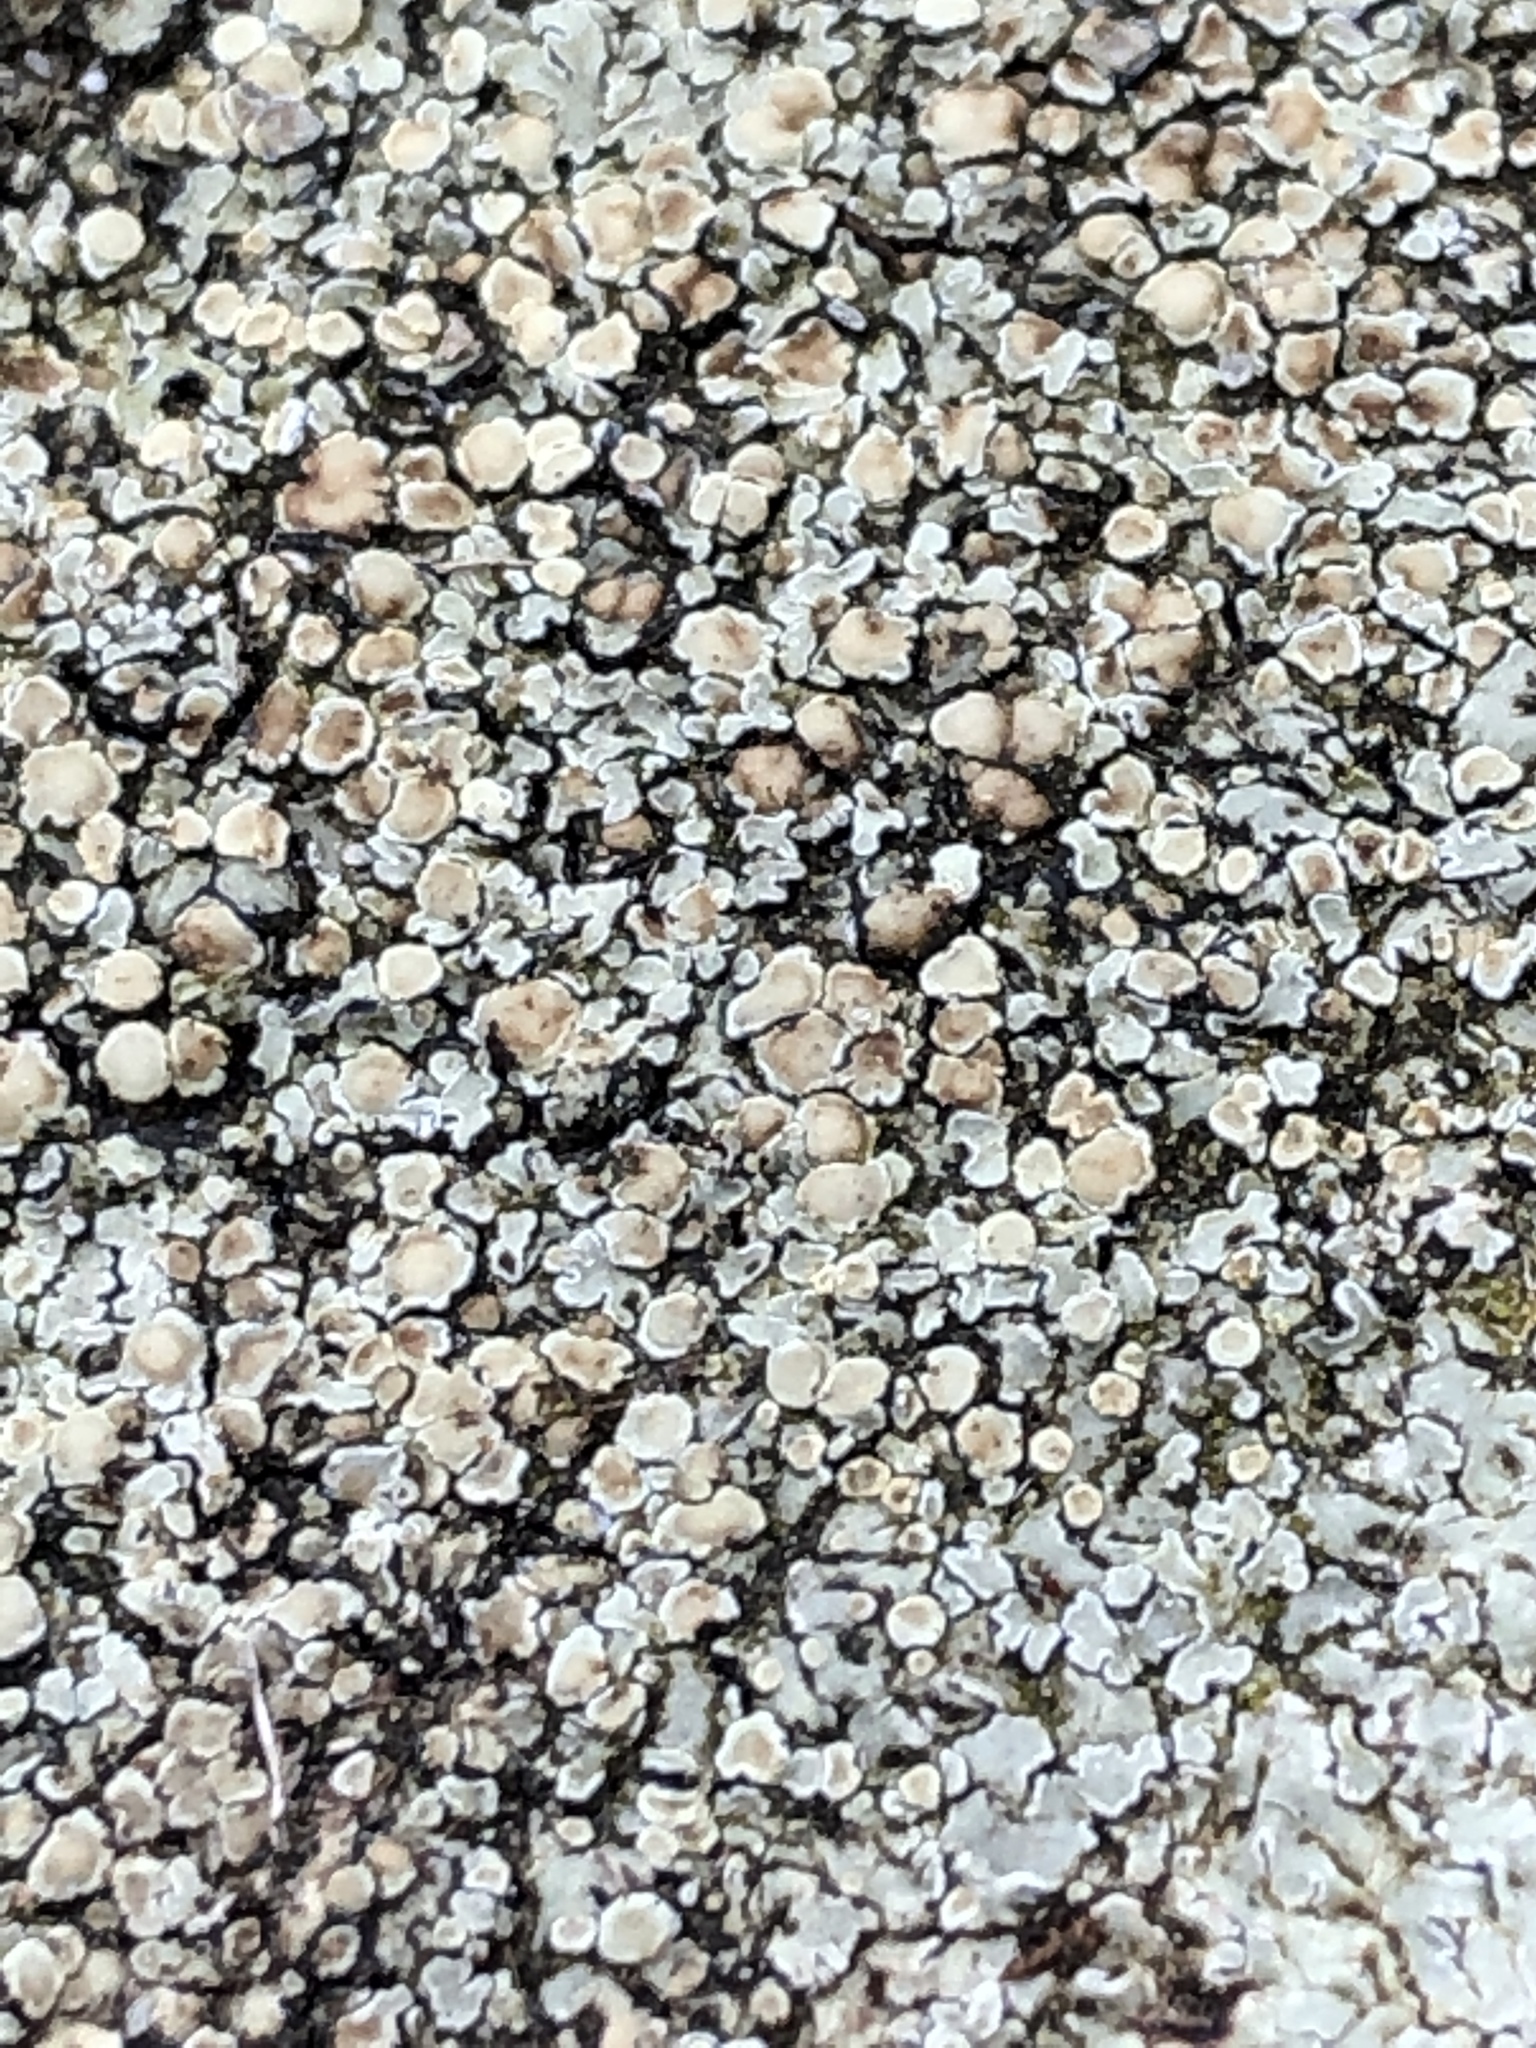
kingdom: Fungi
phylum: Ascomycota
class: Lecanoromycetes
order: Lecanorales
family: Lecanoraceae
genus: Protoparmeliopsis
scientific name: Protoparmeliopsis muralis
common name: Stonewall rim lichen
